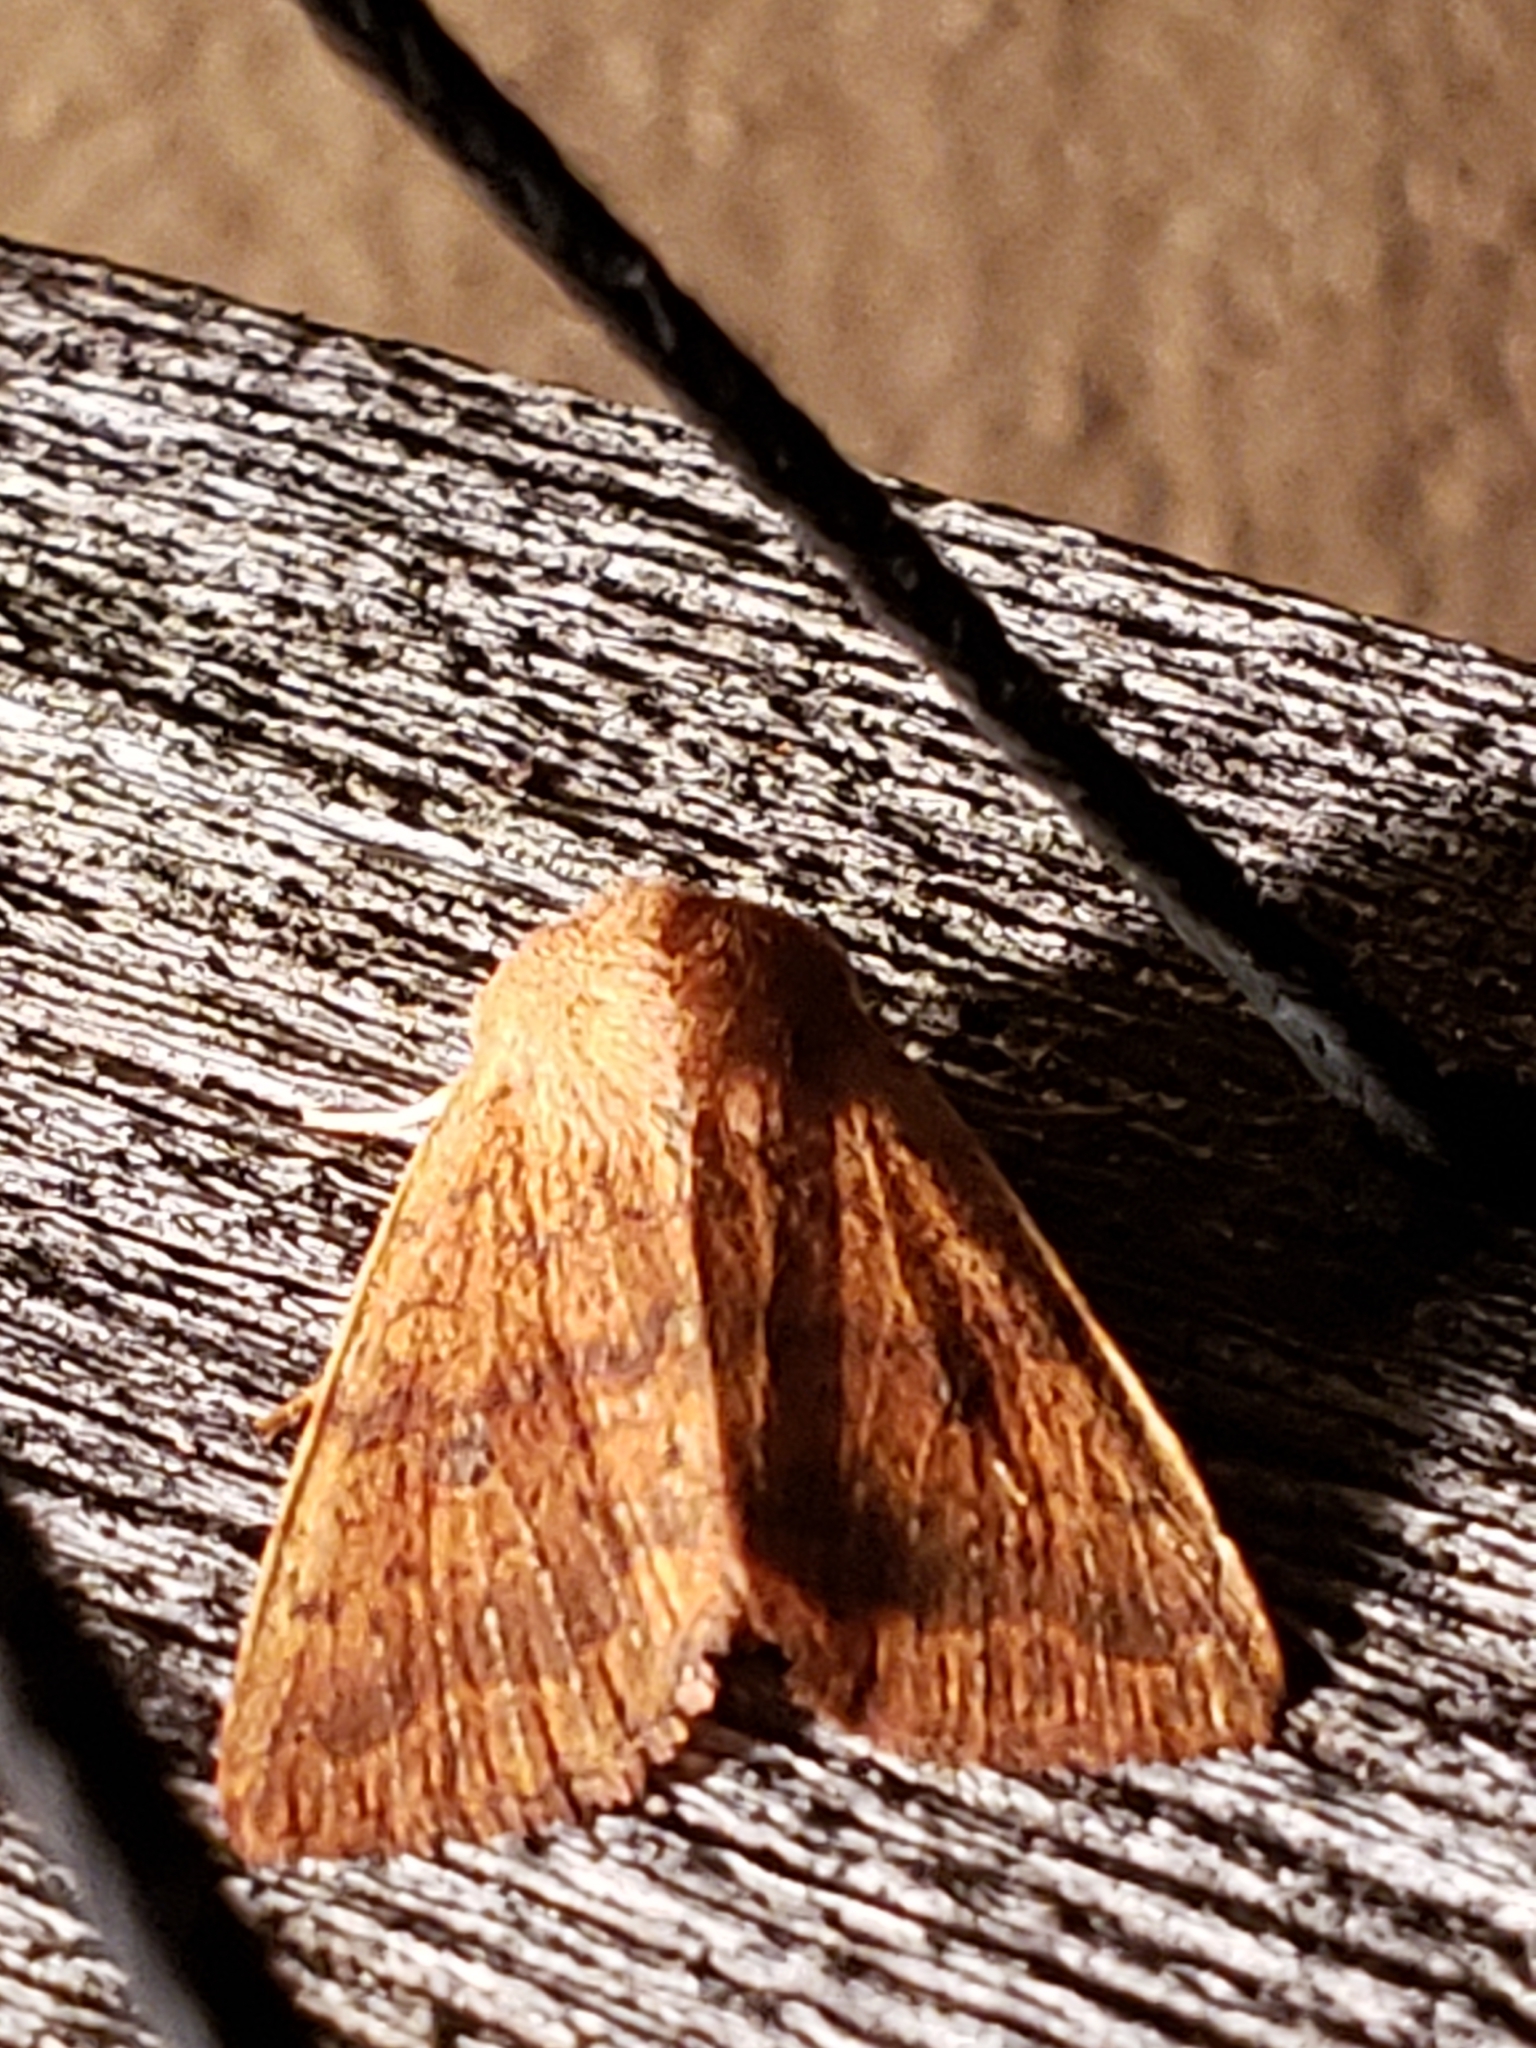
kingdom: Animalia
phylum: Arthropoda
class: Insecta
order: Lepidoptera
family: Noctuidae
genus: Agrochola
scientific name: Agrochola bicolorago
